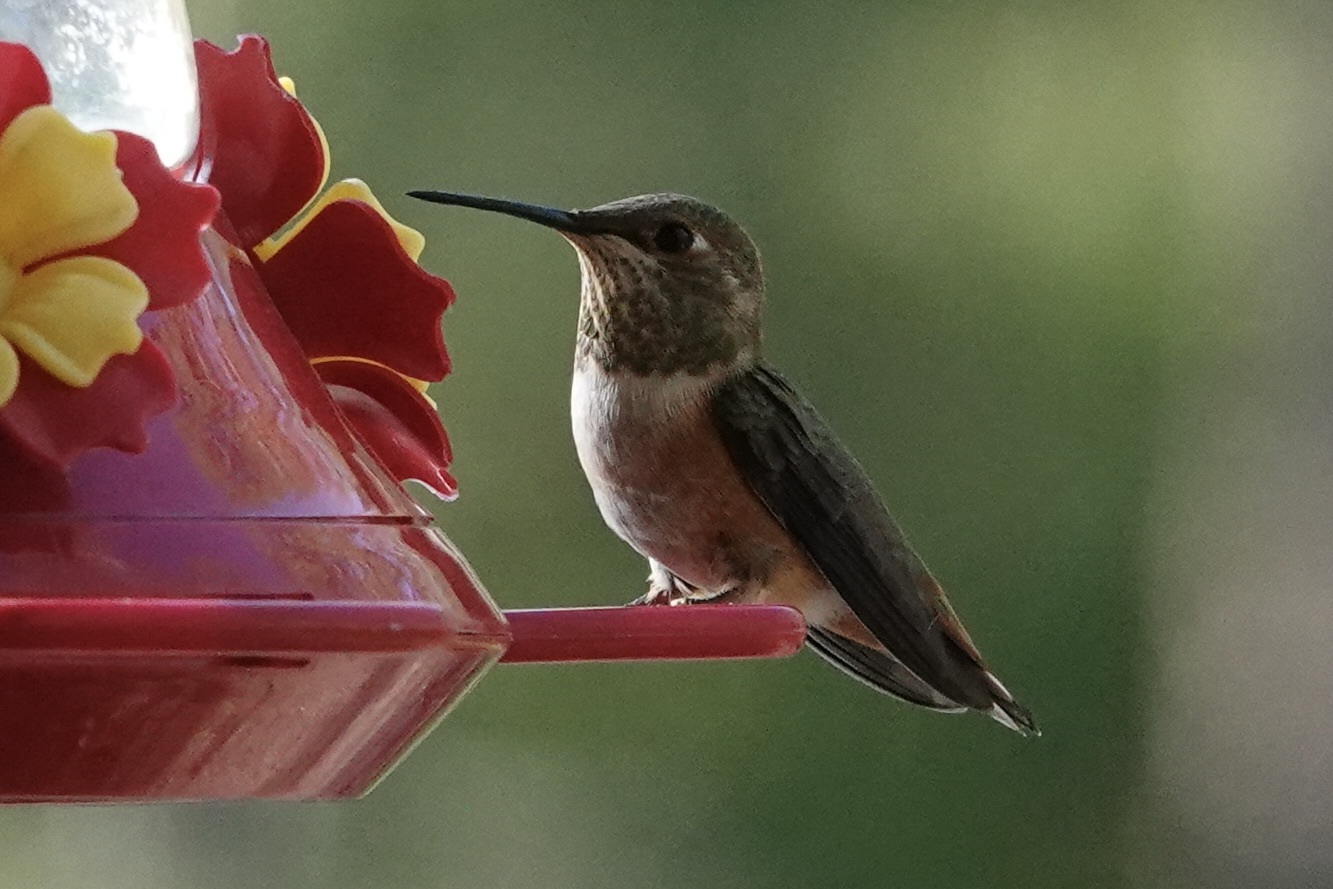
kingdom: Animalia
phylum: Chordata
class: Aves
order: Apodiformes
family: Trochilidae
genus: Selasphorus
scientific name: Selasphorus rufus
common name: Rufous hummingbird
